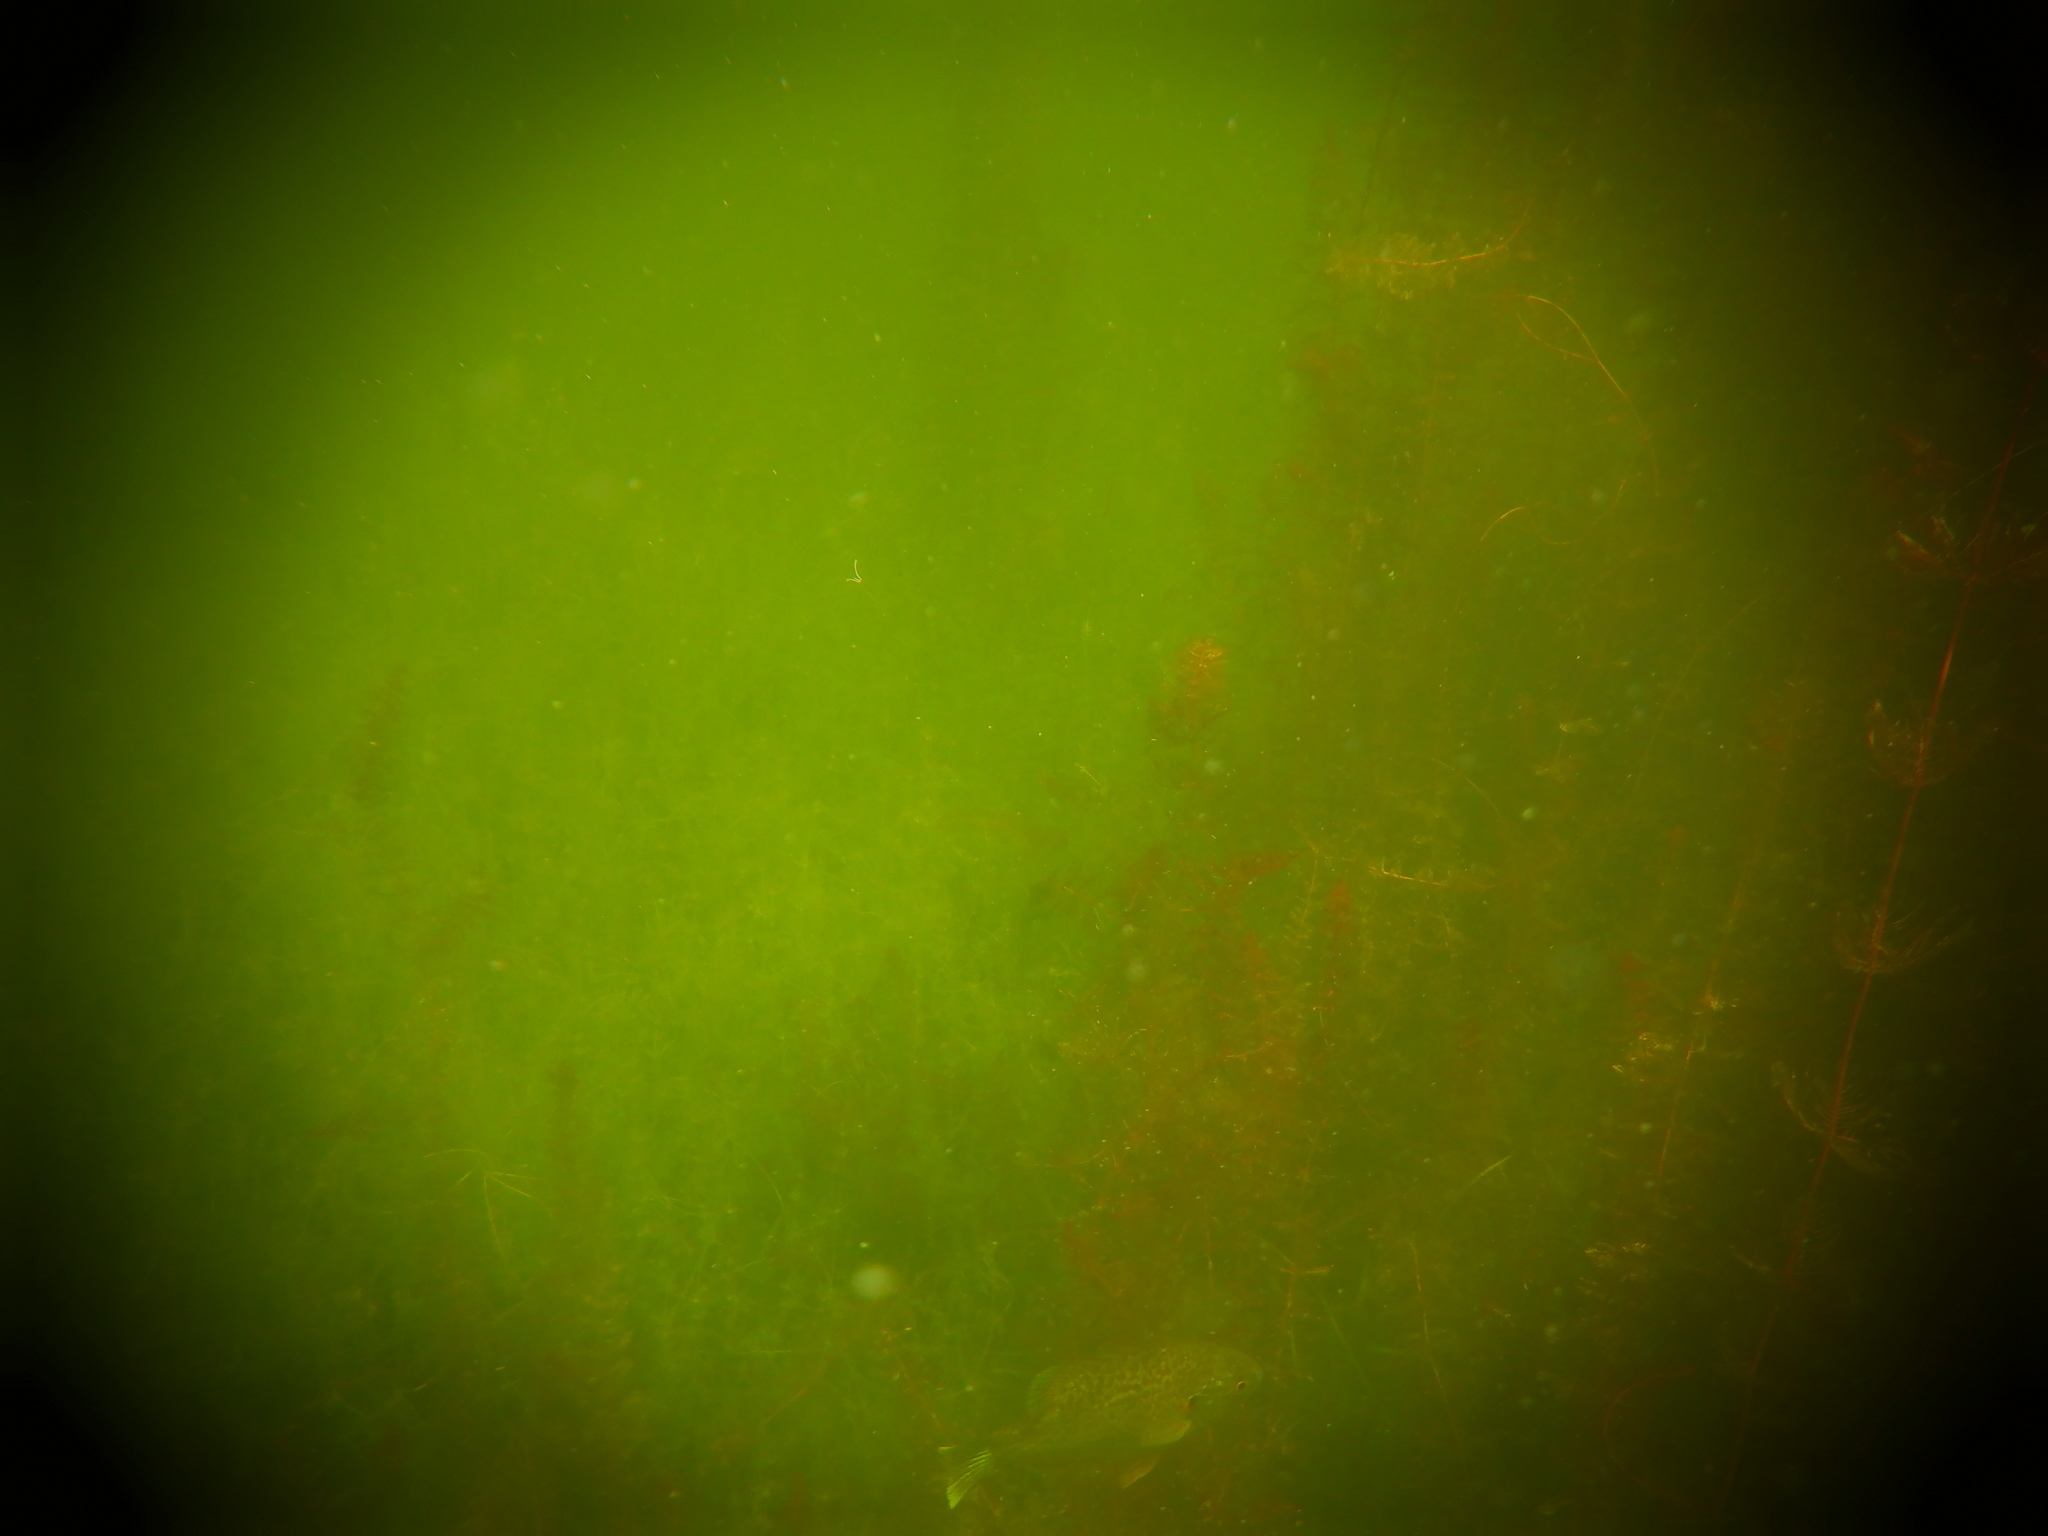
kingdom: Animalia
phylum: Chordata
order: Perciformes
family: Centrarchidae
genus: Lepomis
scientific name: Lepomis gibbosus
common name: Pumpkinseed
